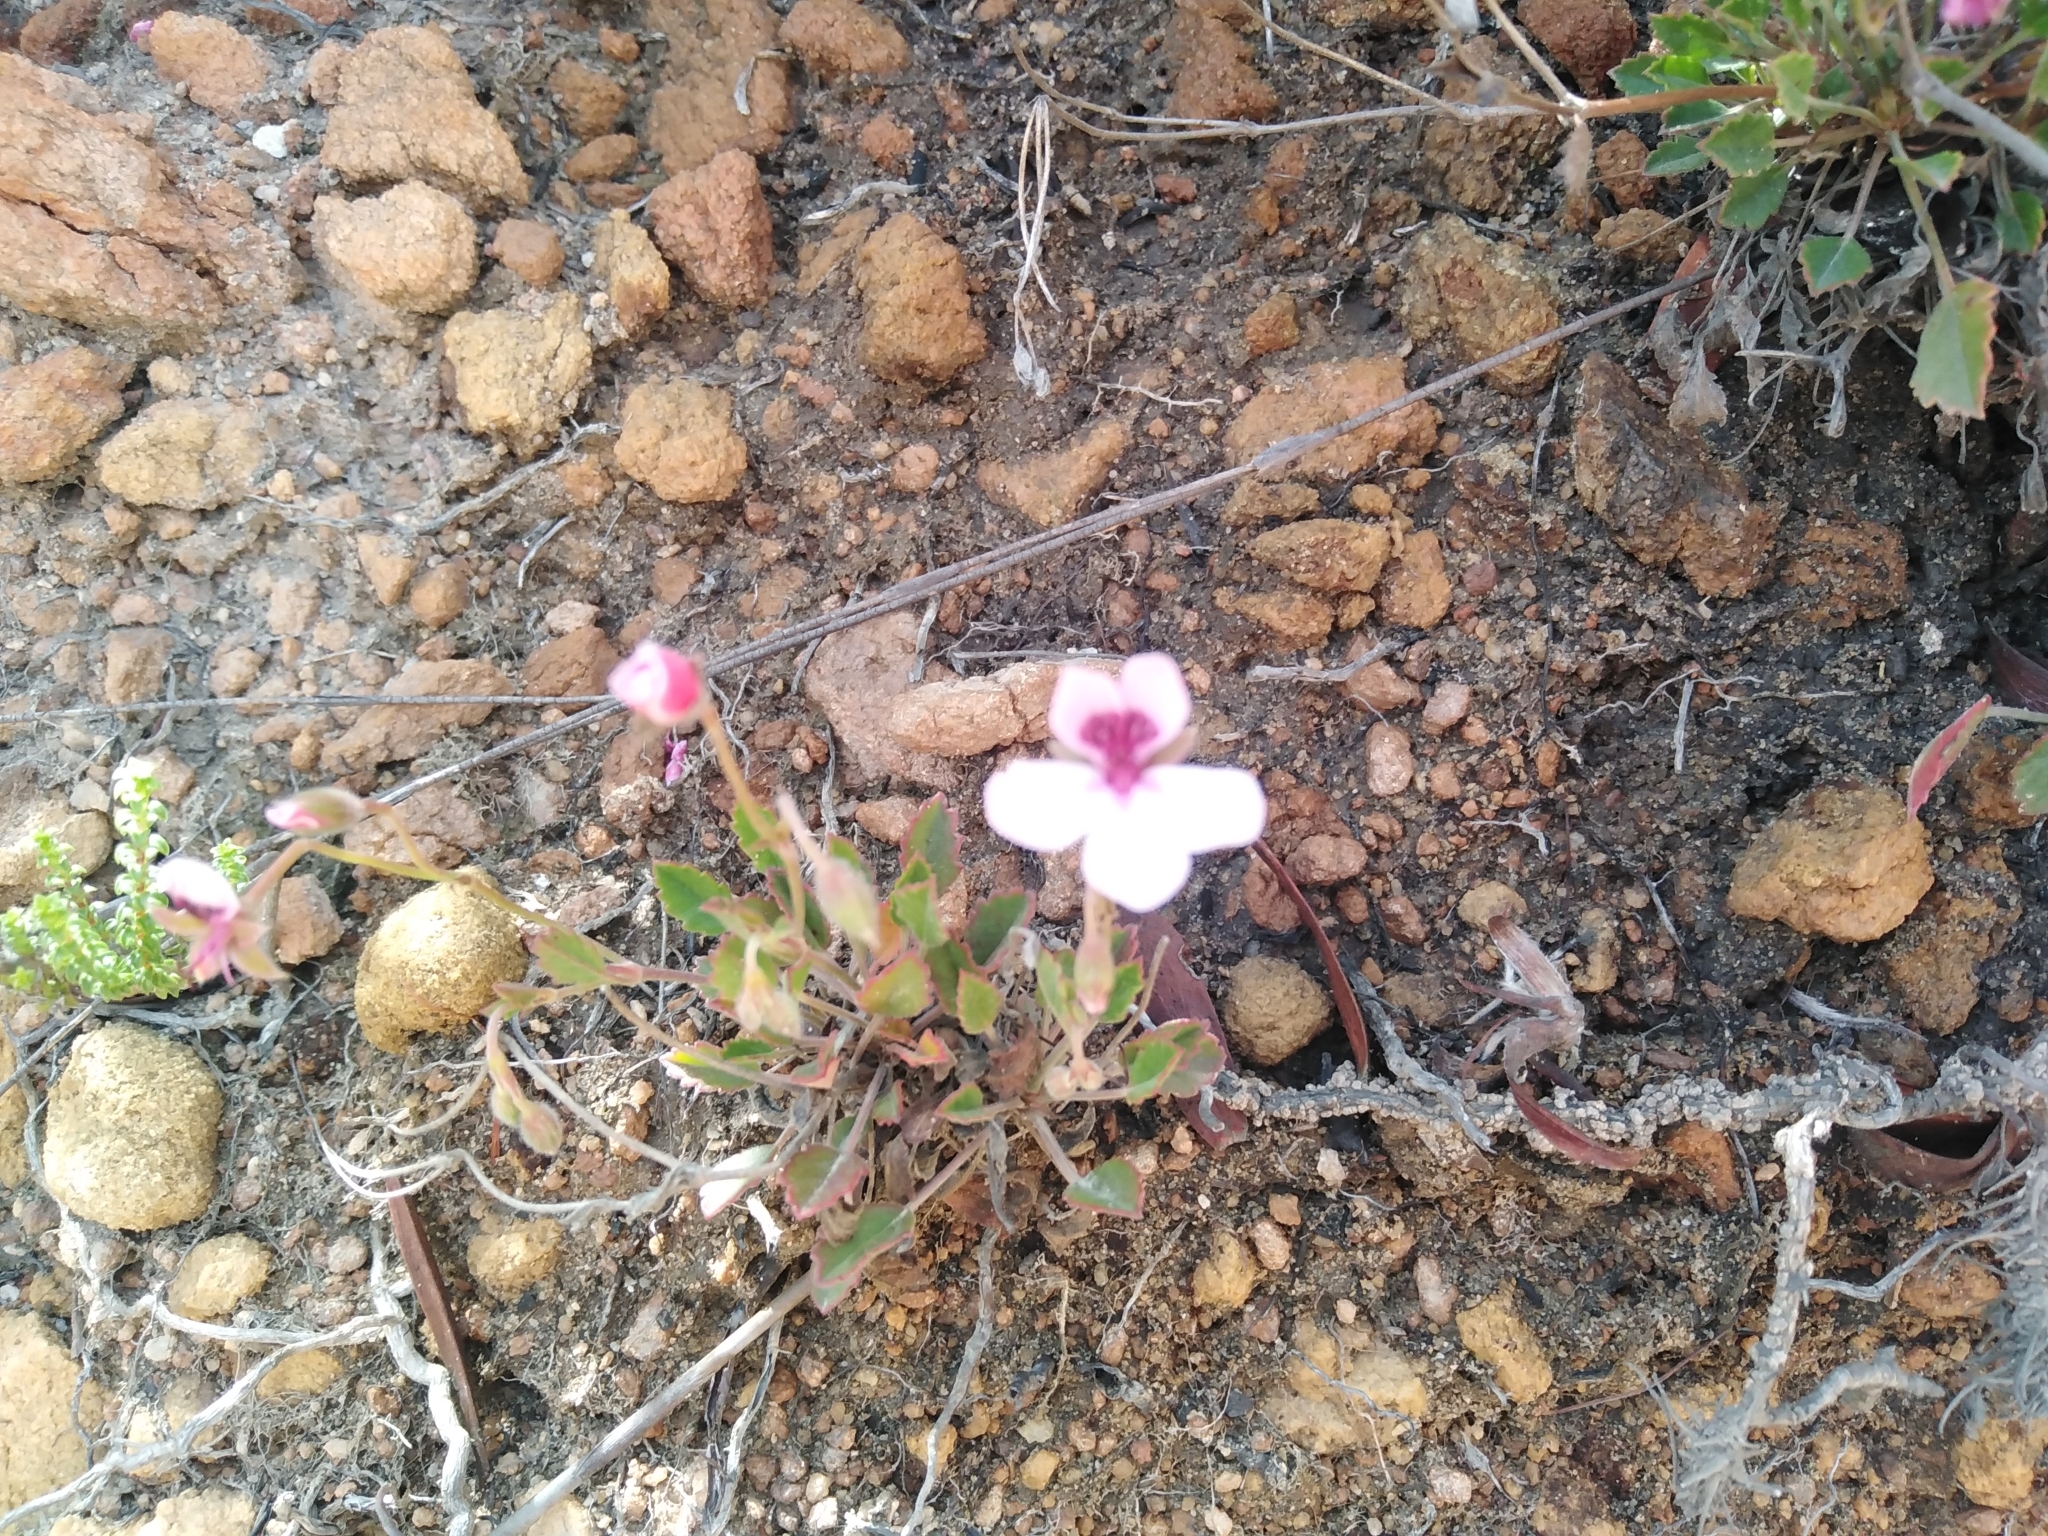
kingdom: Plantae
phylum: Tracheophyta
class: Magnoliopsida
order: Geraniales
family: Geraniaceae
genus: Pelargonium
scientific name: Pelargonium burgerianum
